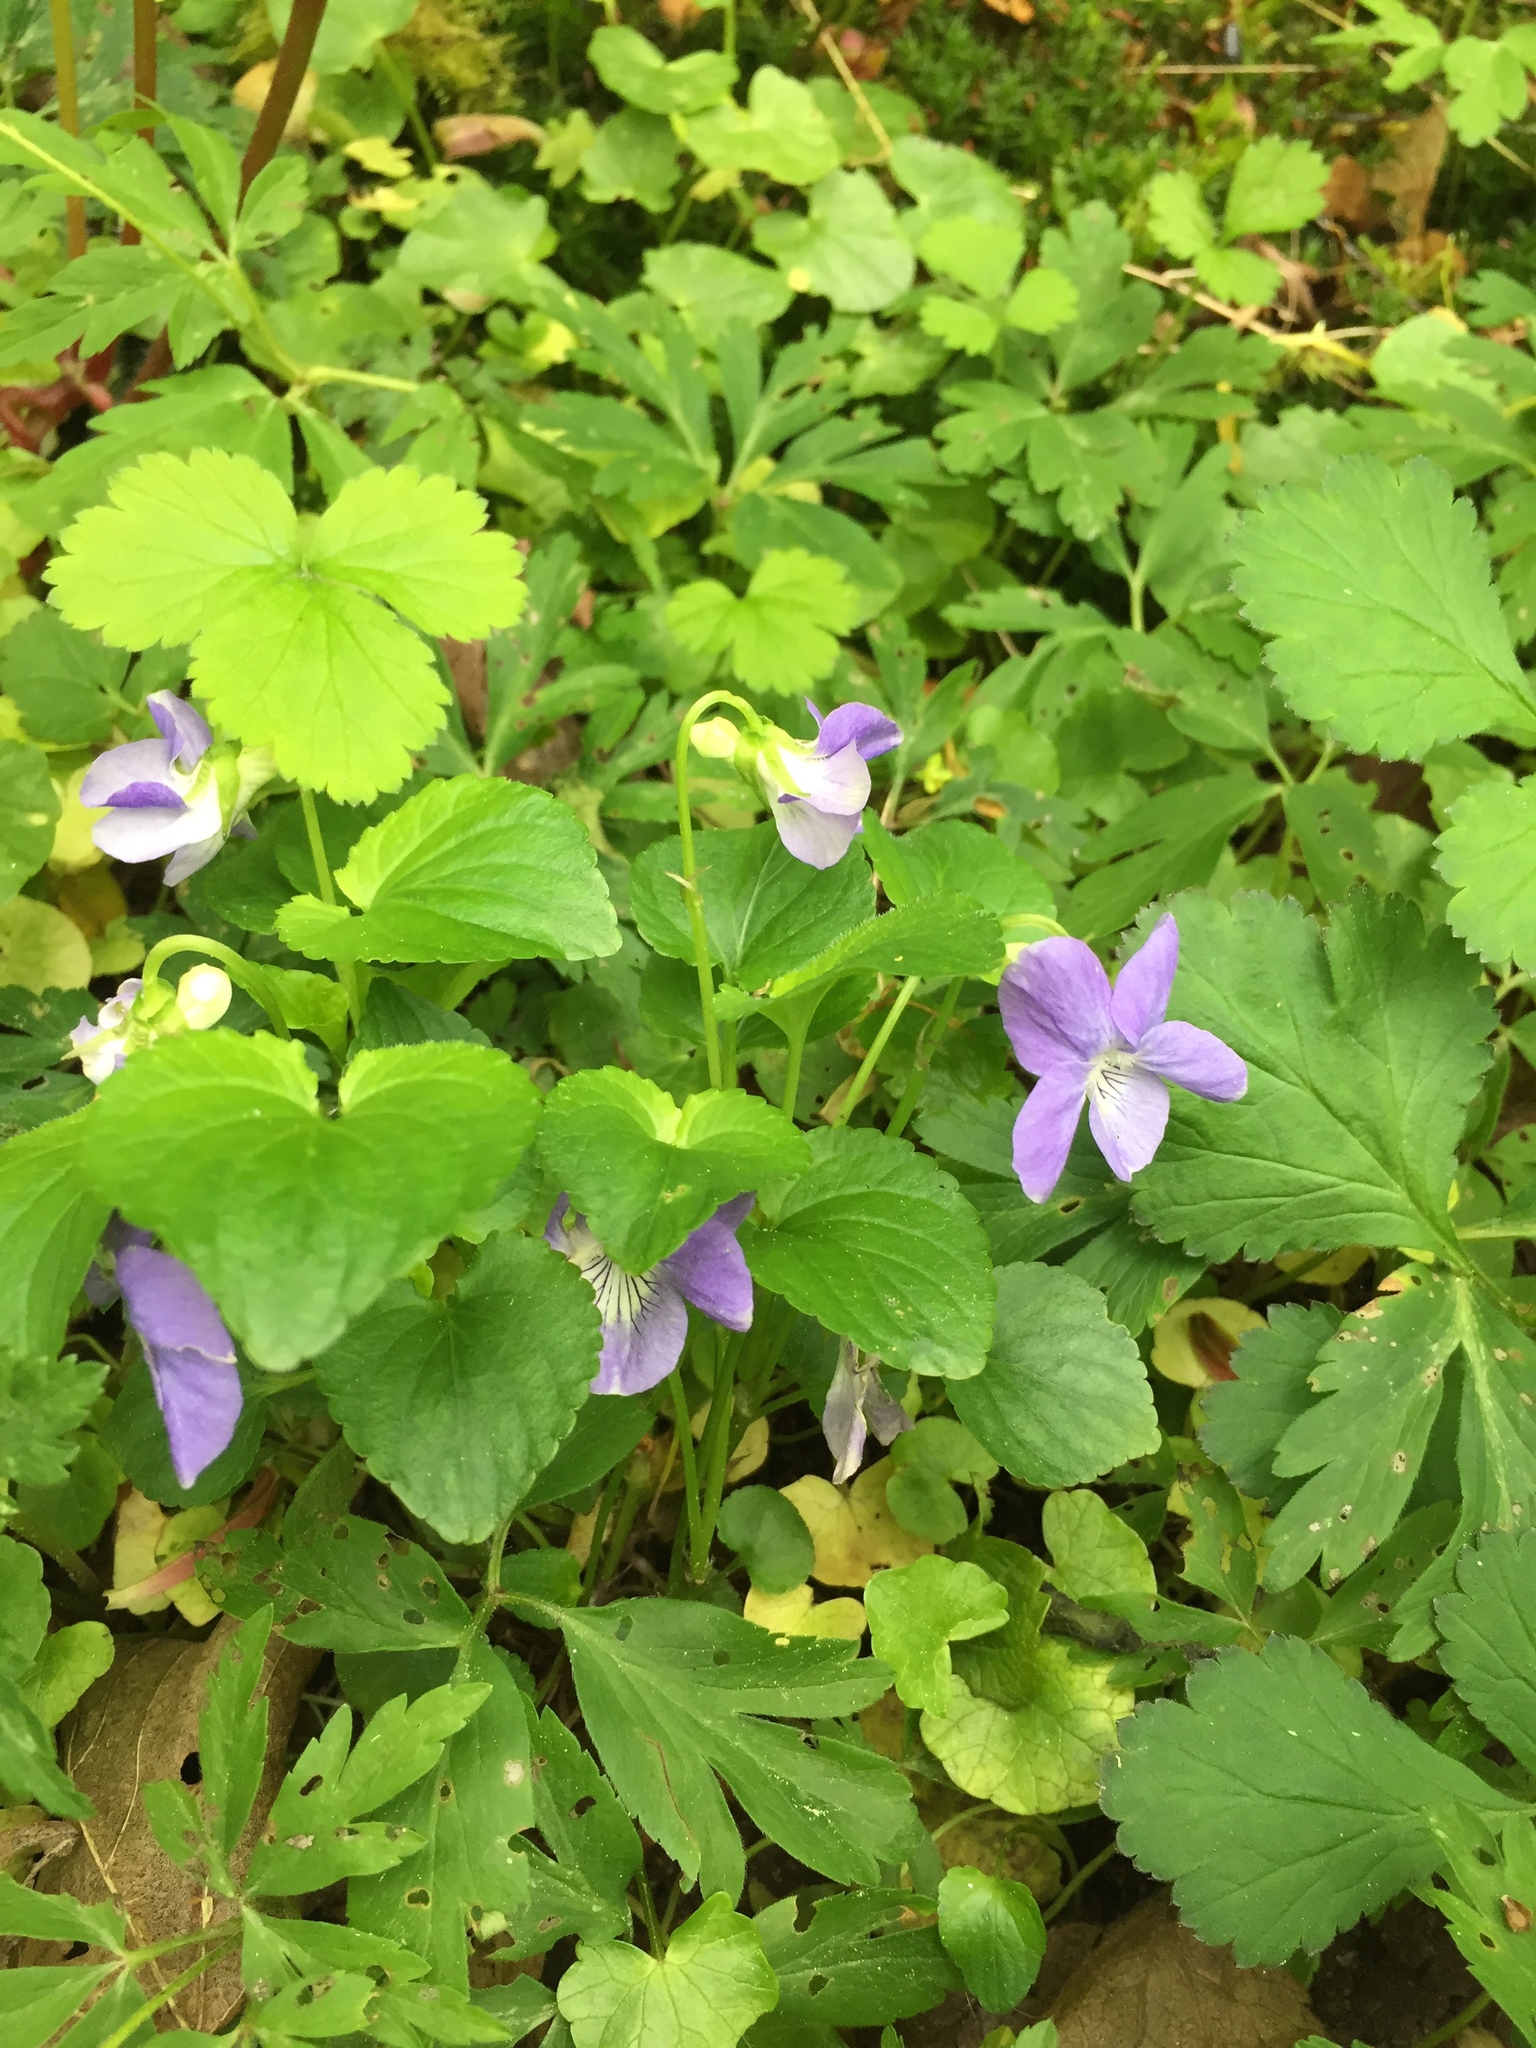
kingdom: Plantae
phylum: Tracheophyta
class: Magnoliopsida
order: Malpighiales
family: Violaceae
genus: Viola
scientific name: Viola riviniana
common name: Common dog-violet
